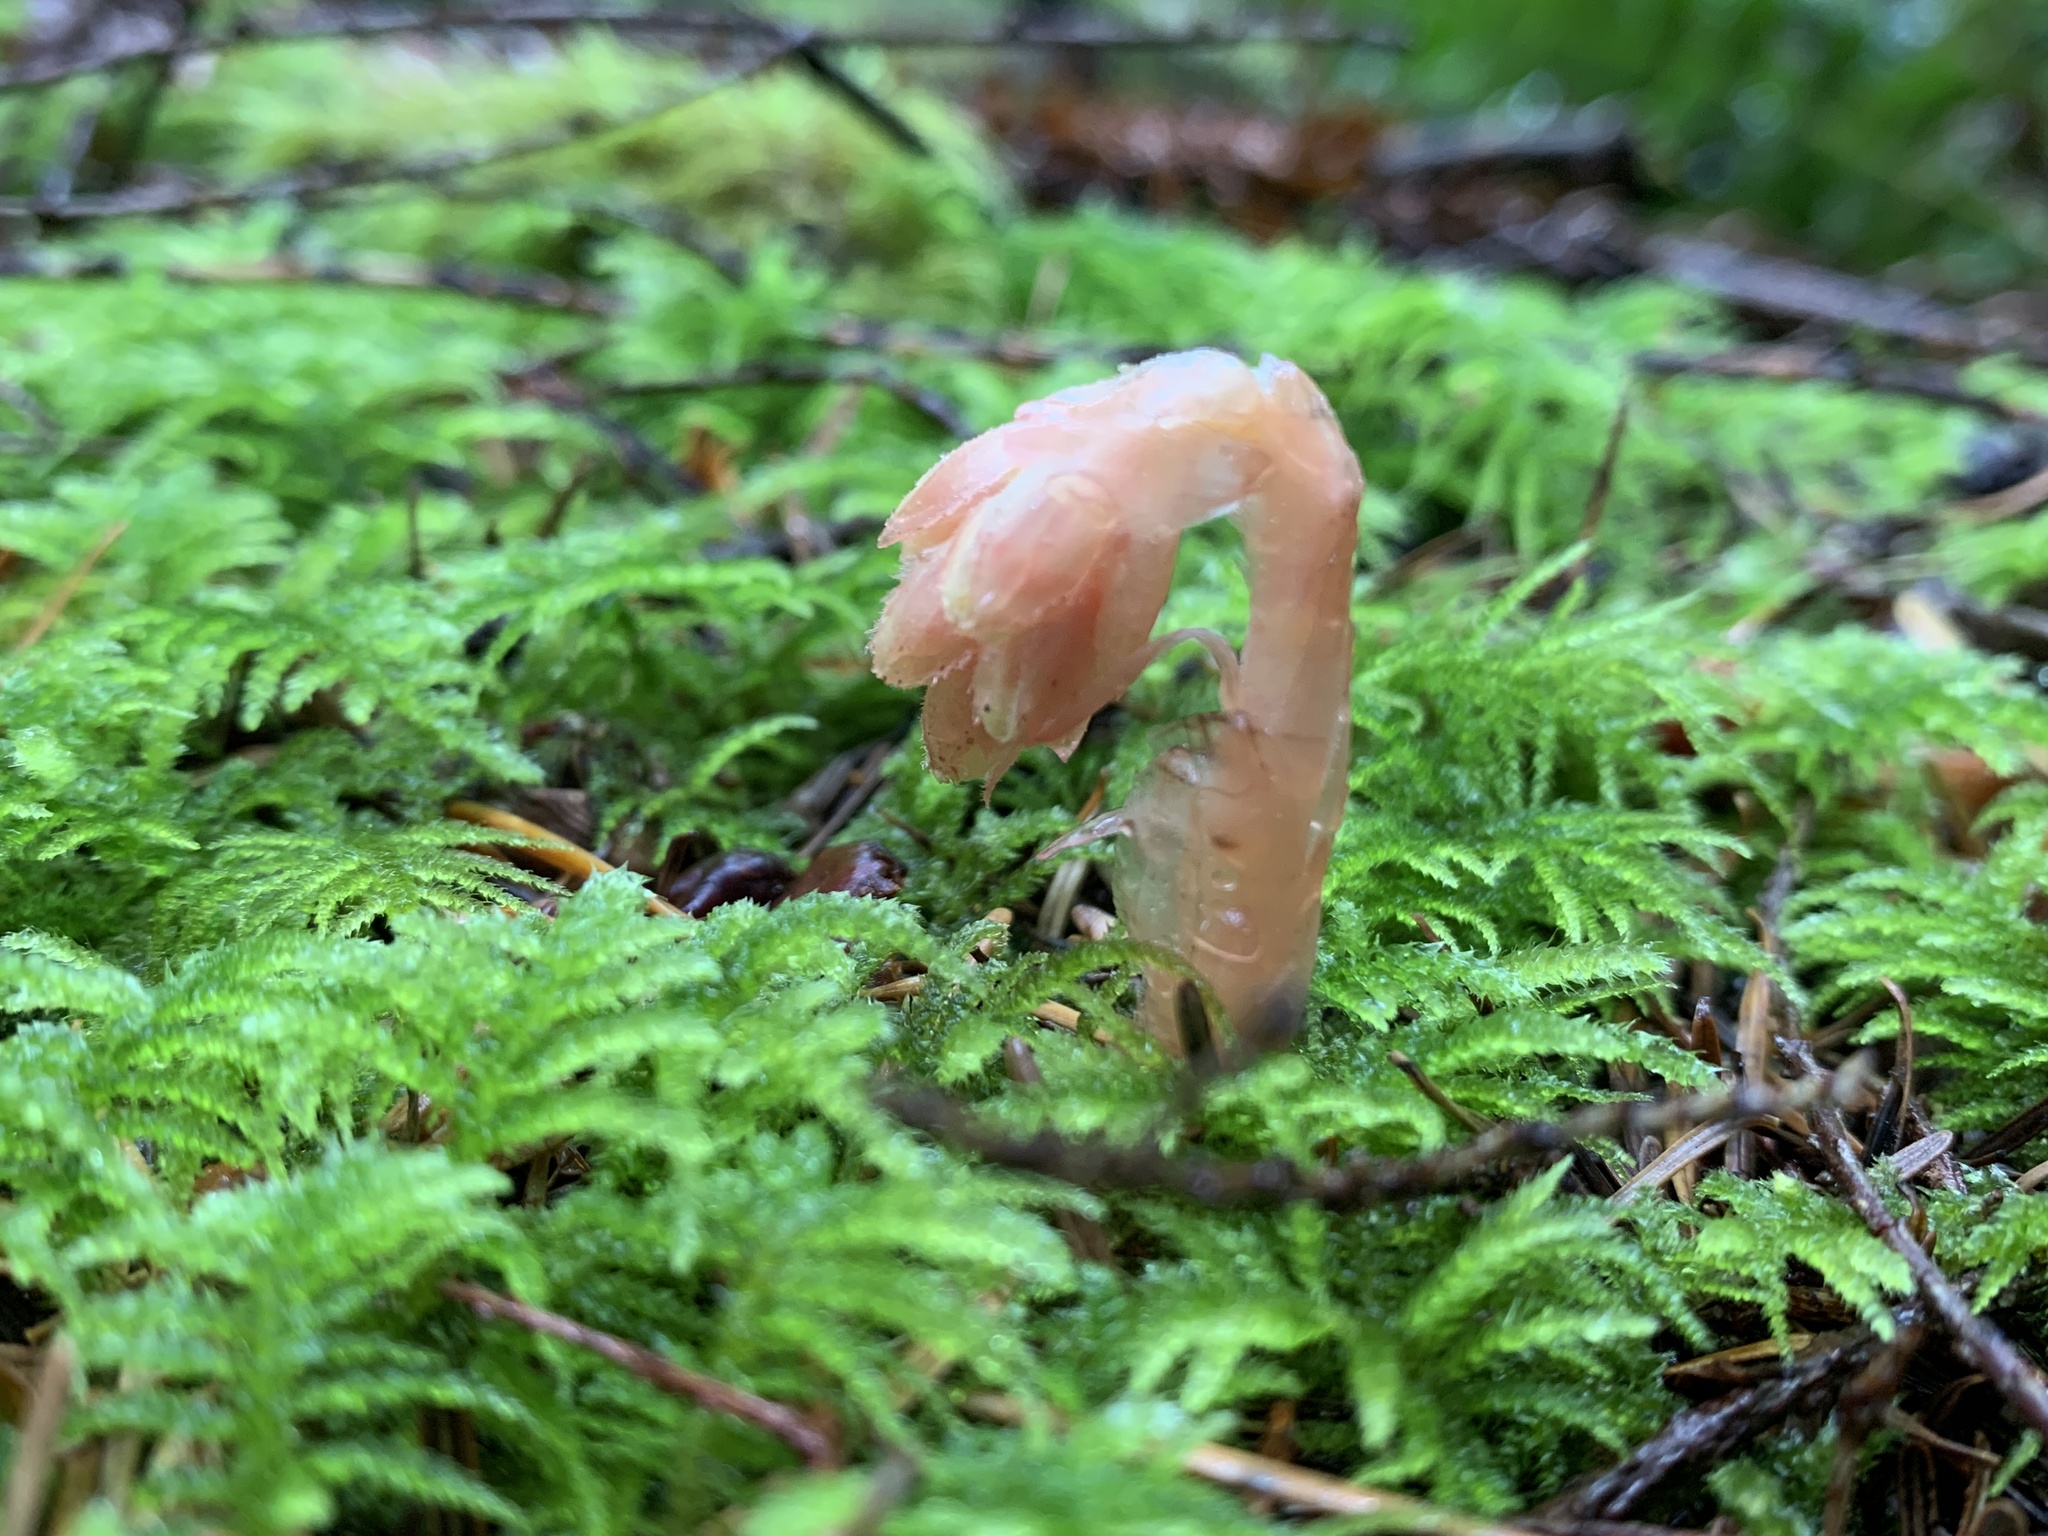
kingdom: Plantae
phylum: Tracheophyta
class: Magnoliopsida
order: Ericales
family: Ericaceae
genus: Hypopitys
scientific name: Hypopitys monotropa
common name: Yellow bird's-nest
